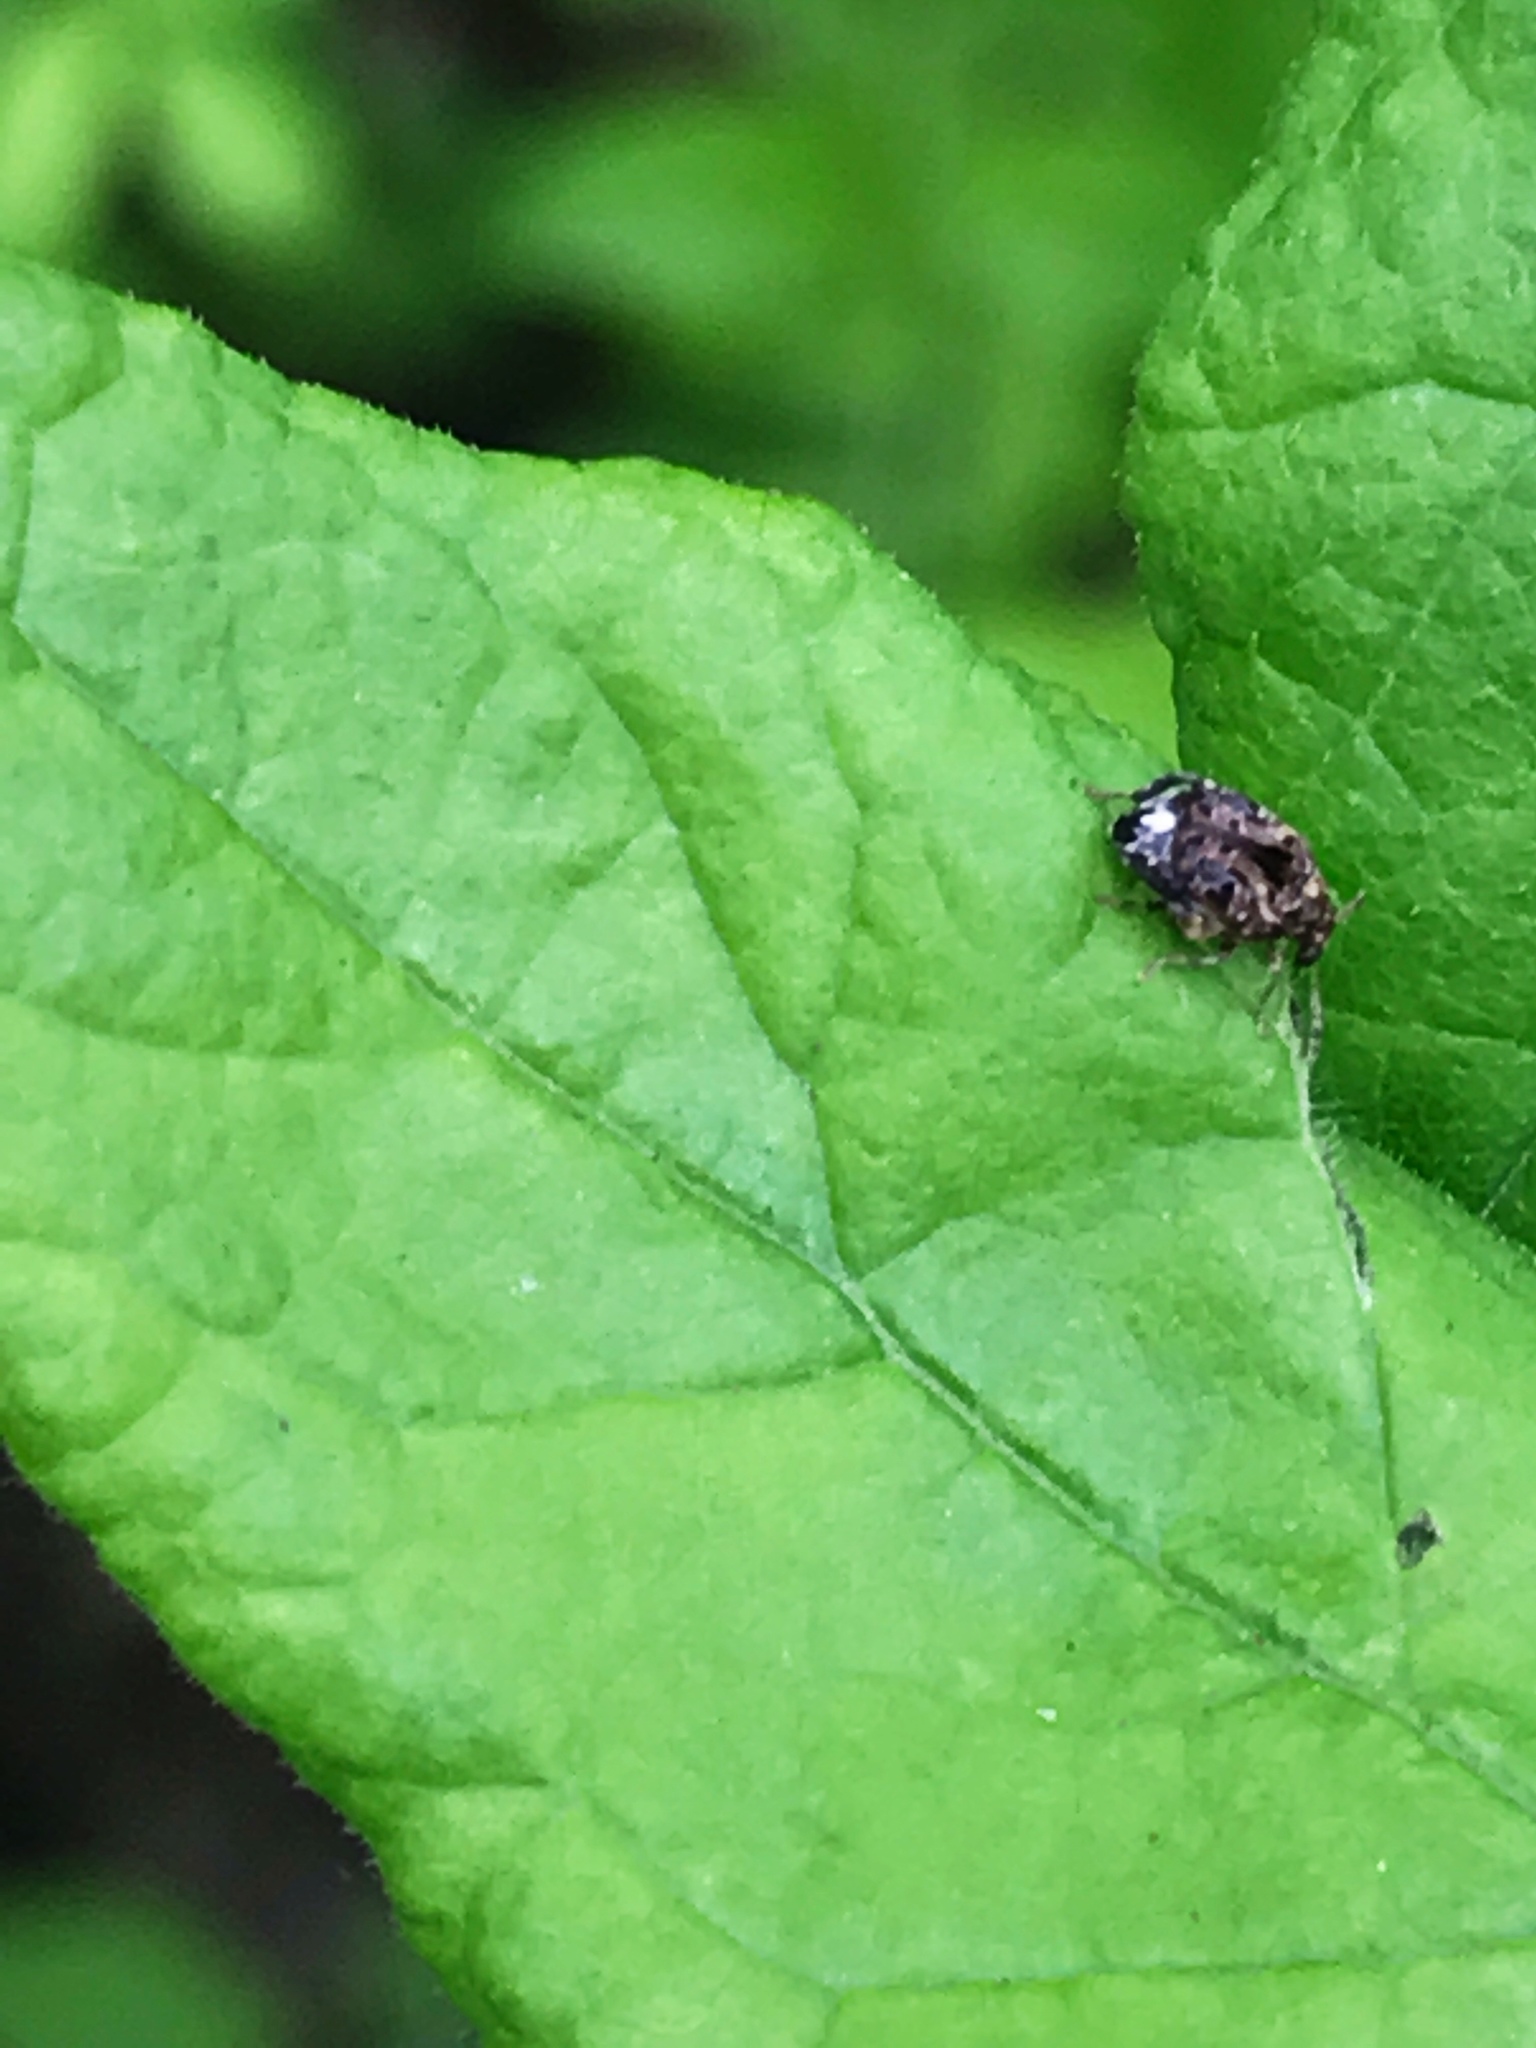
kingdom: Animalia
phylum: Arthropoda
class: Insecta
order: Coleoptera
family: Chrysomelidae
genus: Gibbobruchus
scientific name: Gibbobruchus mimus
